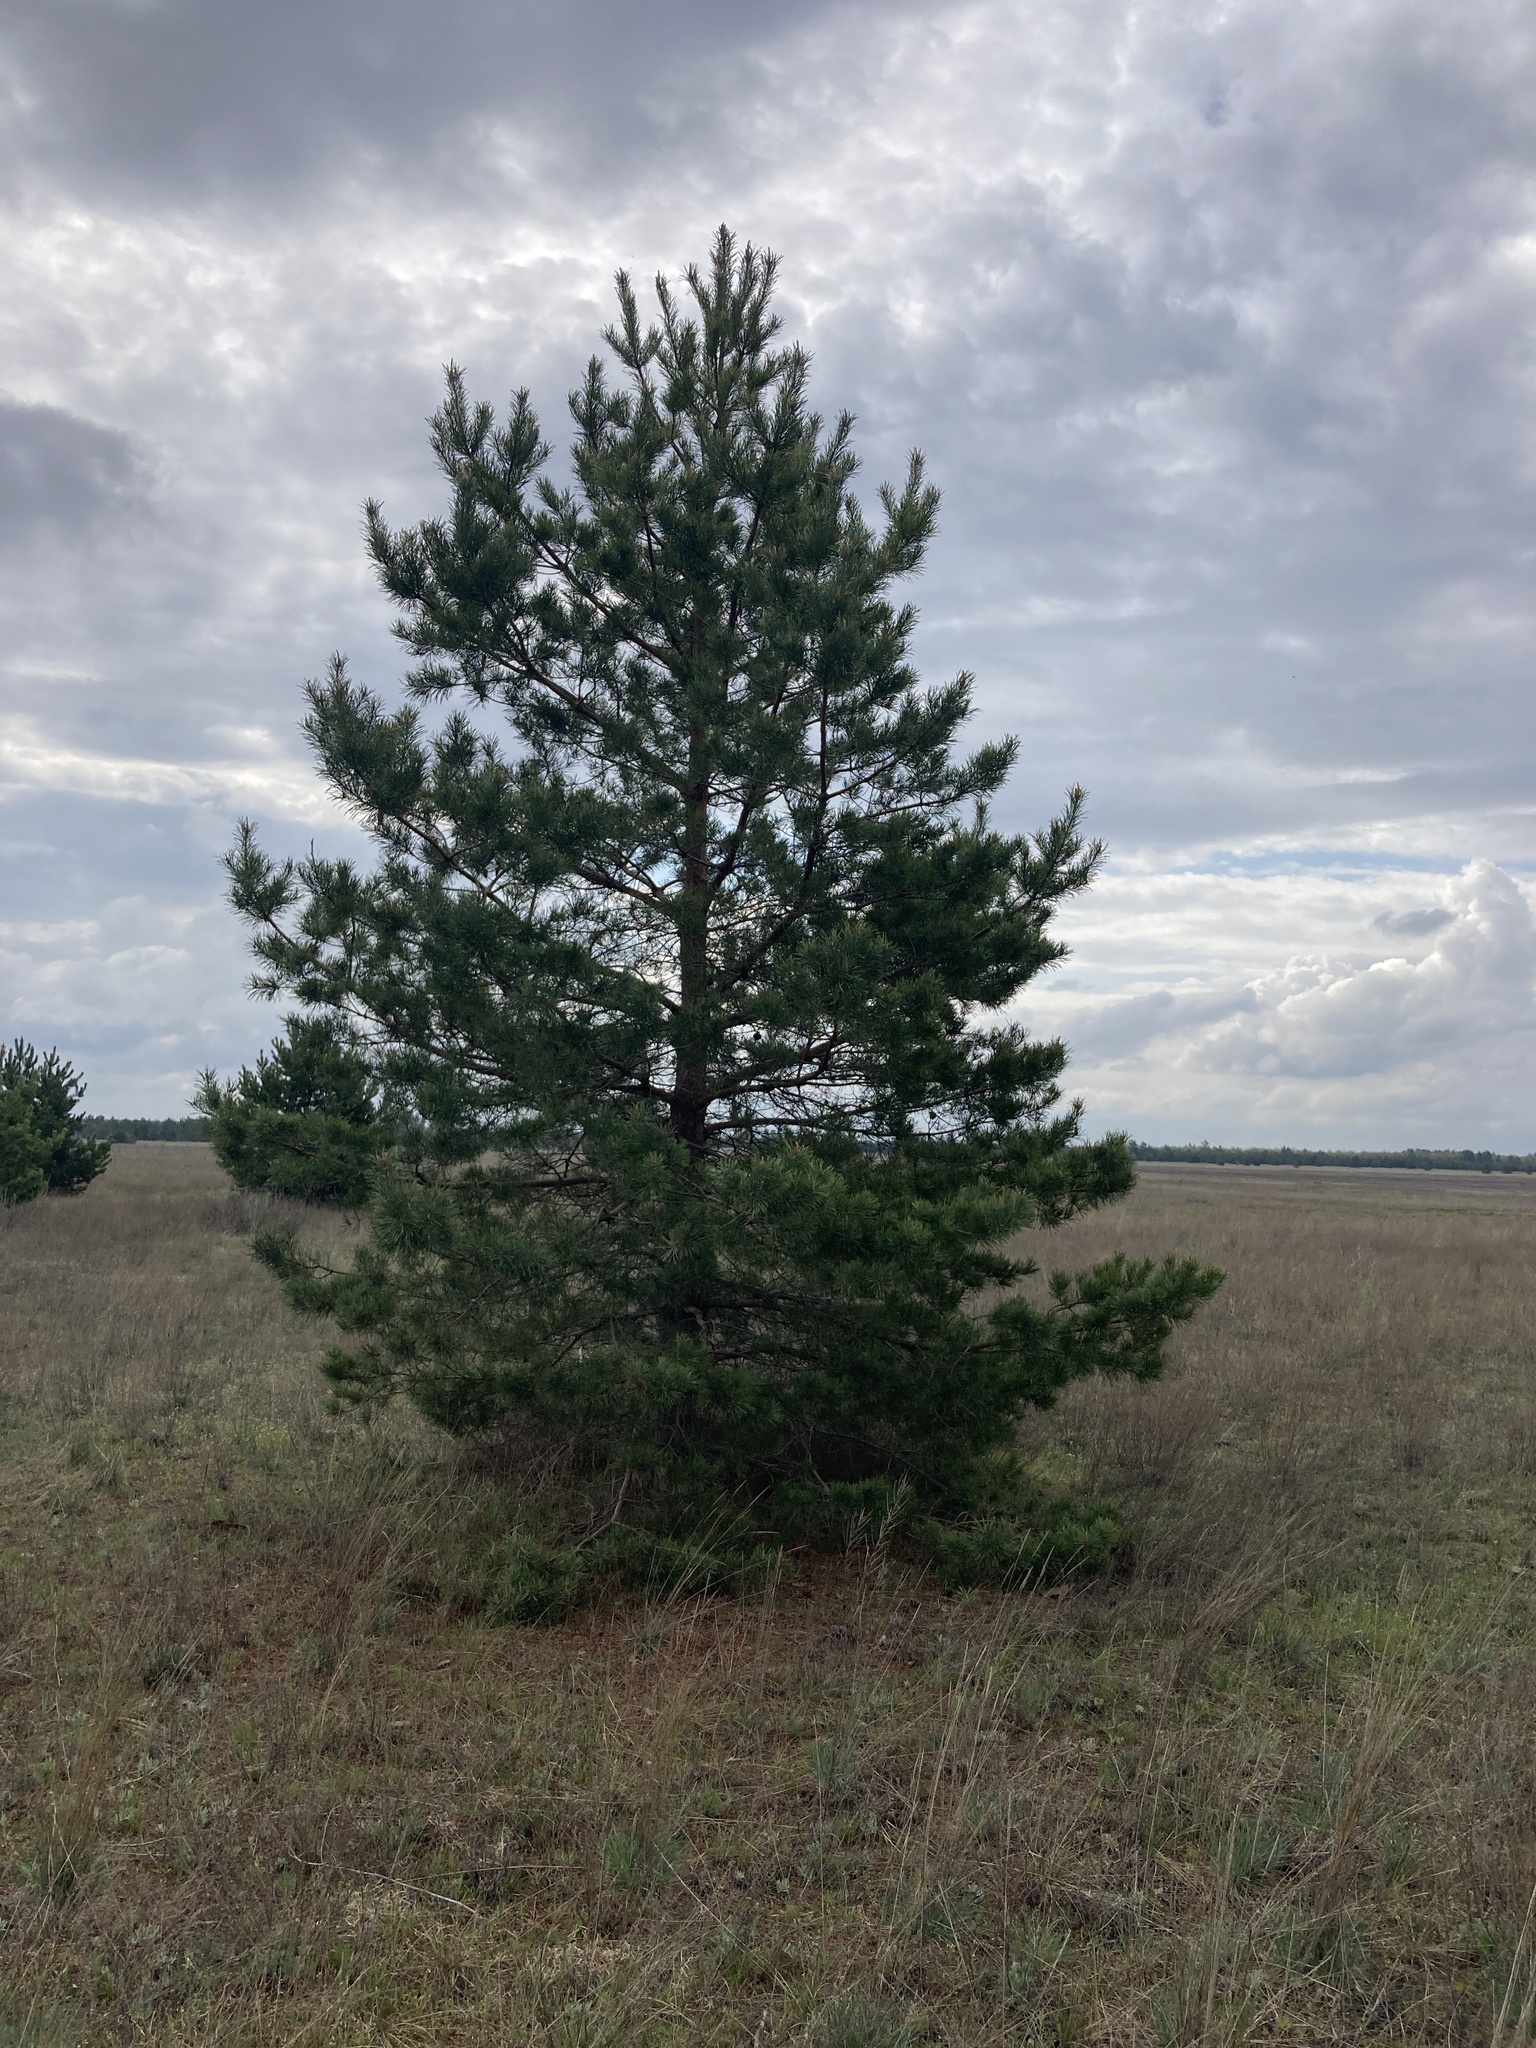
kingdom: Plantae
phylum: Tracheophyta
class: Pinopsida
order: Pinales
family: Pinaceae
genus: Pinus
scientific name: Pinus sylvestris
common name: Scots pine
